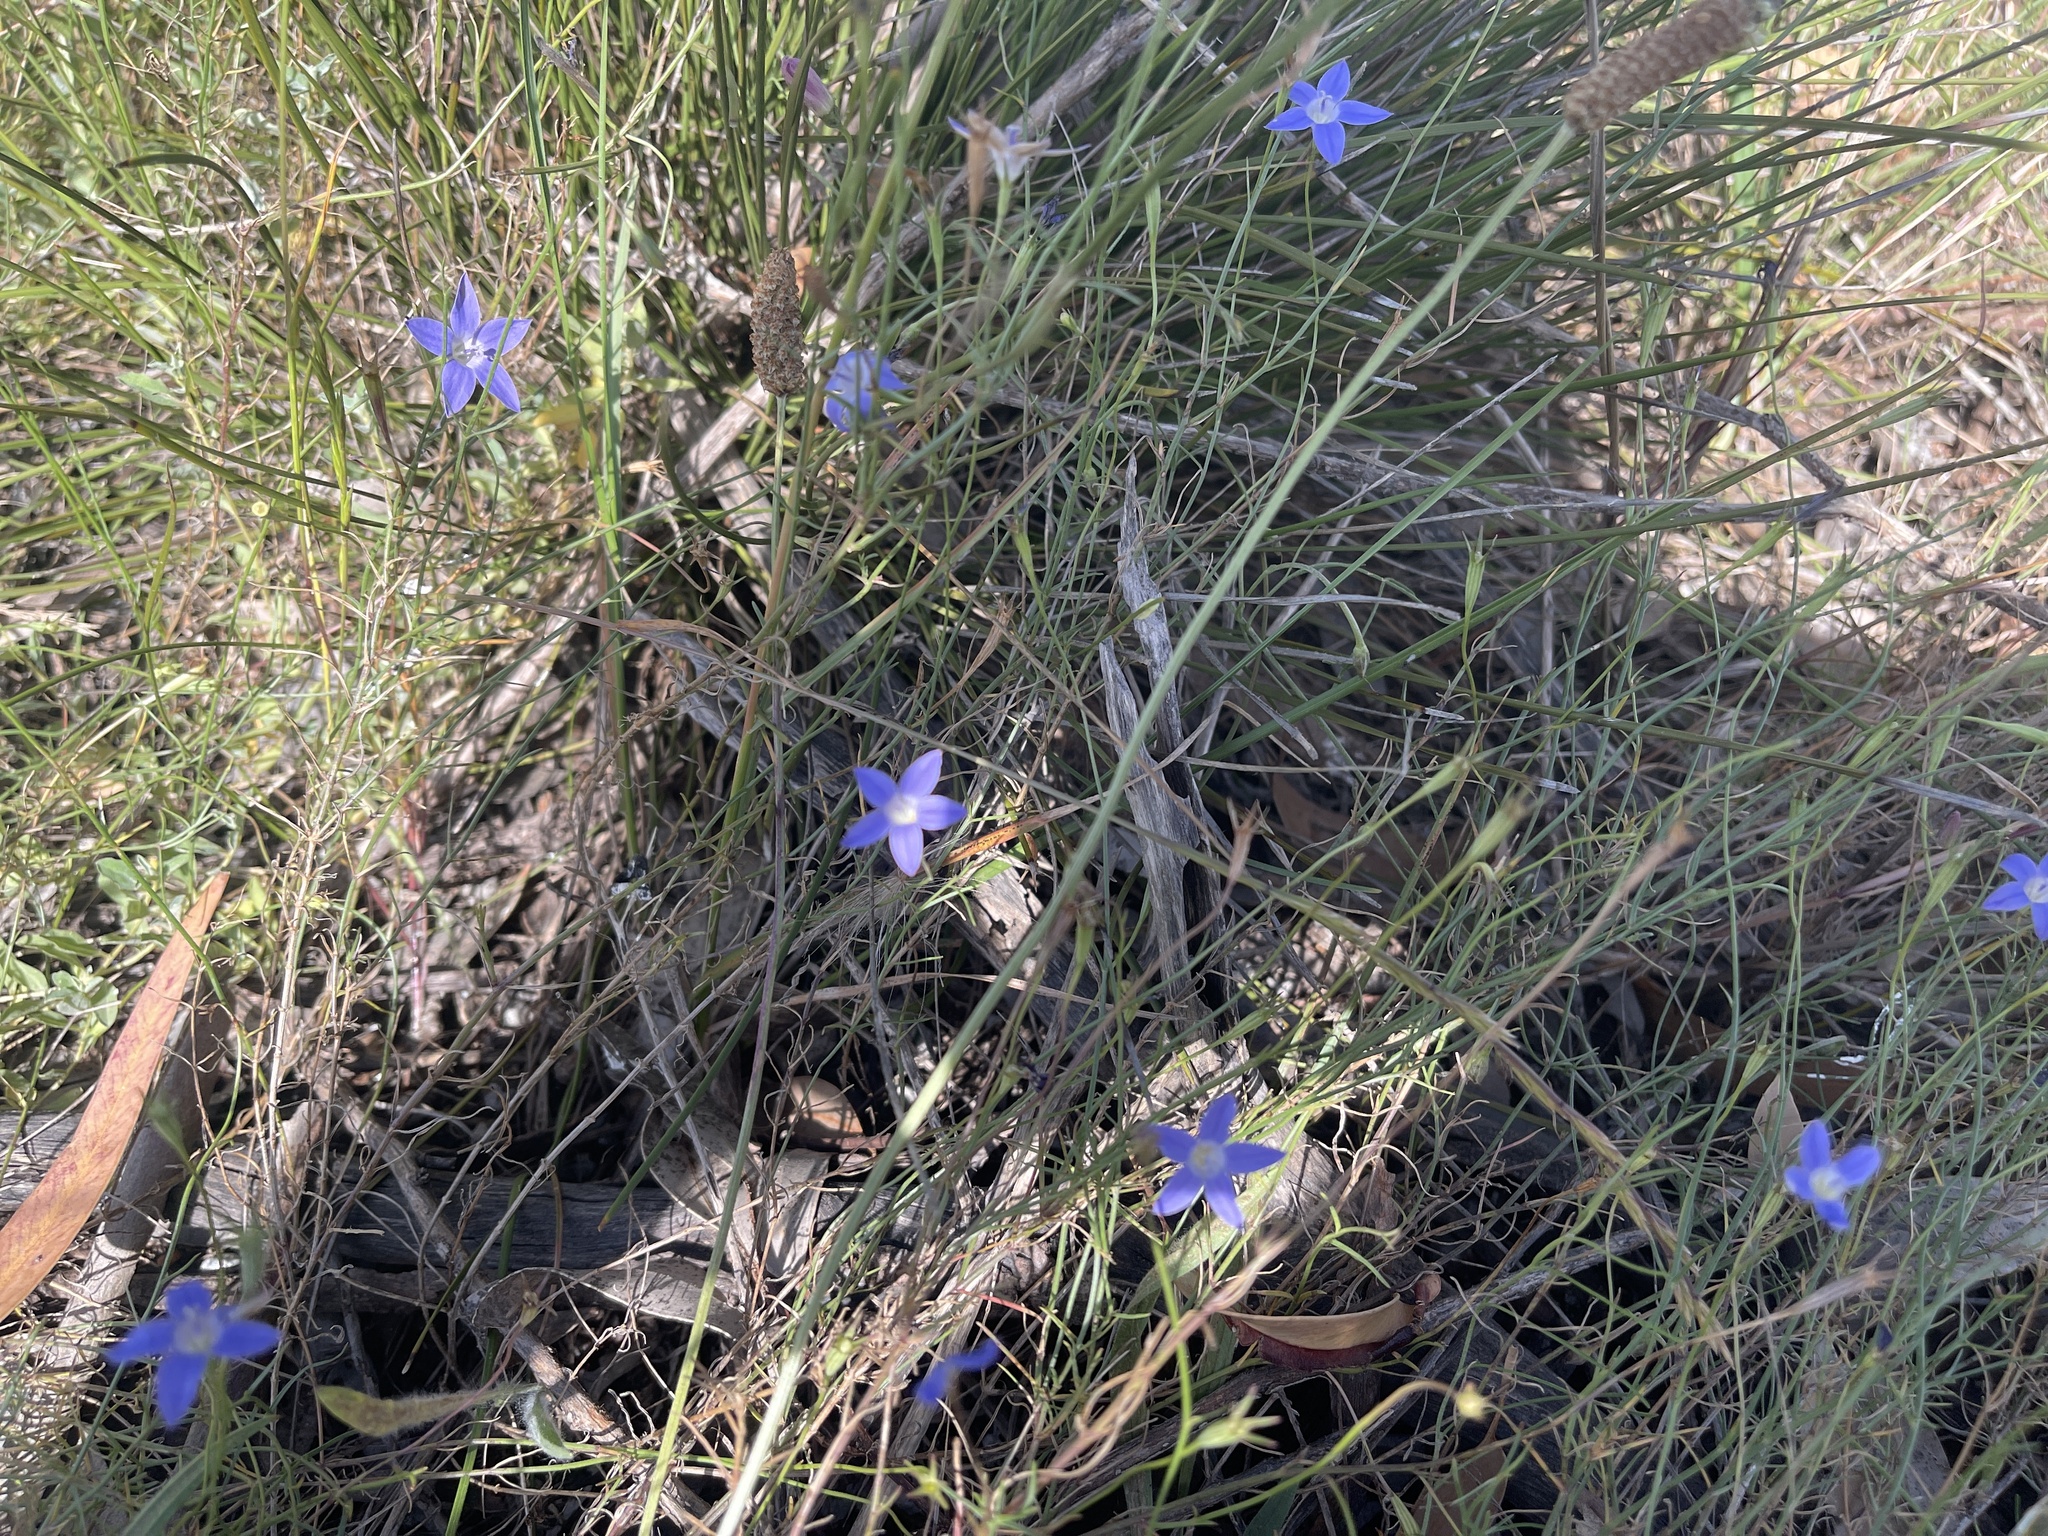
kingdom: Plantae
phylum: Tracheophyta
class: Magnoliopsida
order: Asterales
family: Campanulaceae
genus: Wahlenbergia
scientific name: Wahlenbergia luteola
